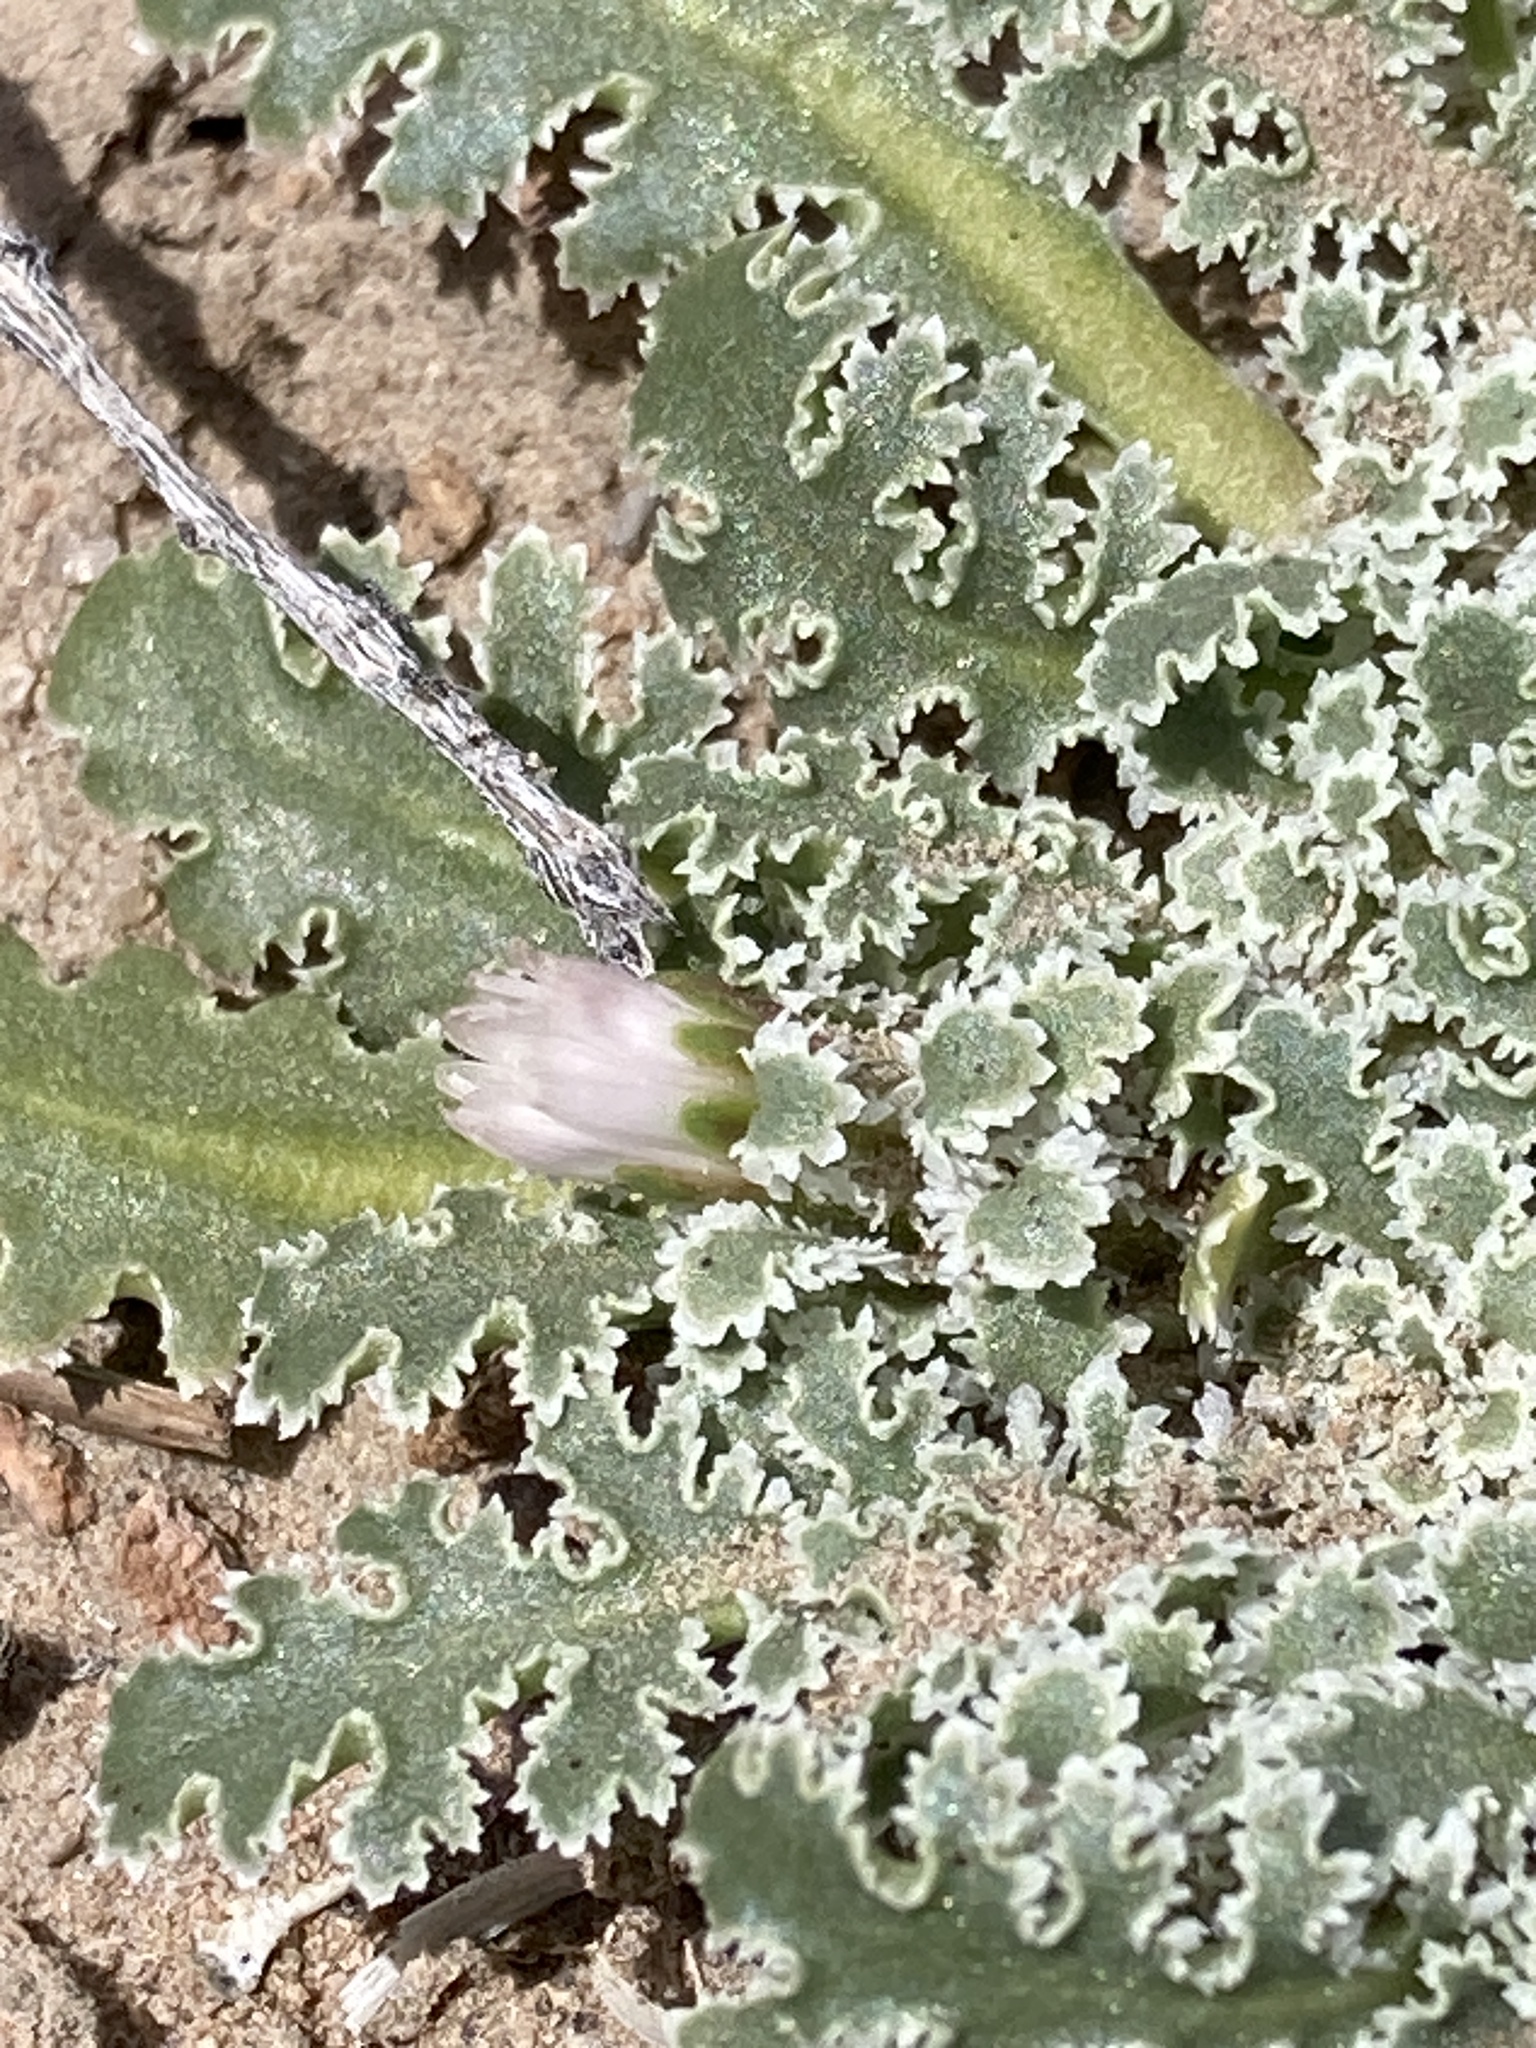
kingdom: Plantae
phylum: Tracheophyta
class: Magnoliopsida
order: Asterales
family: Asteraceae
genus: Glyptopleura
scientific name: Glyptopleura marginata
